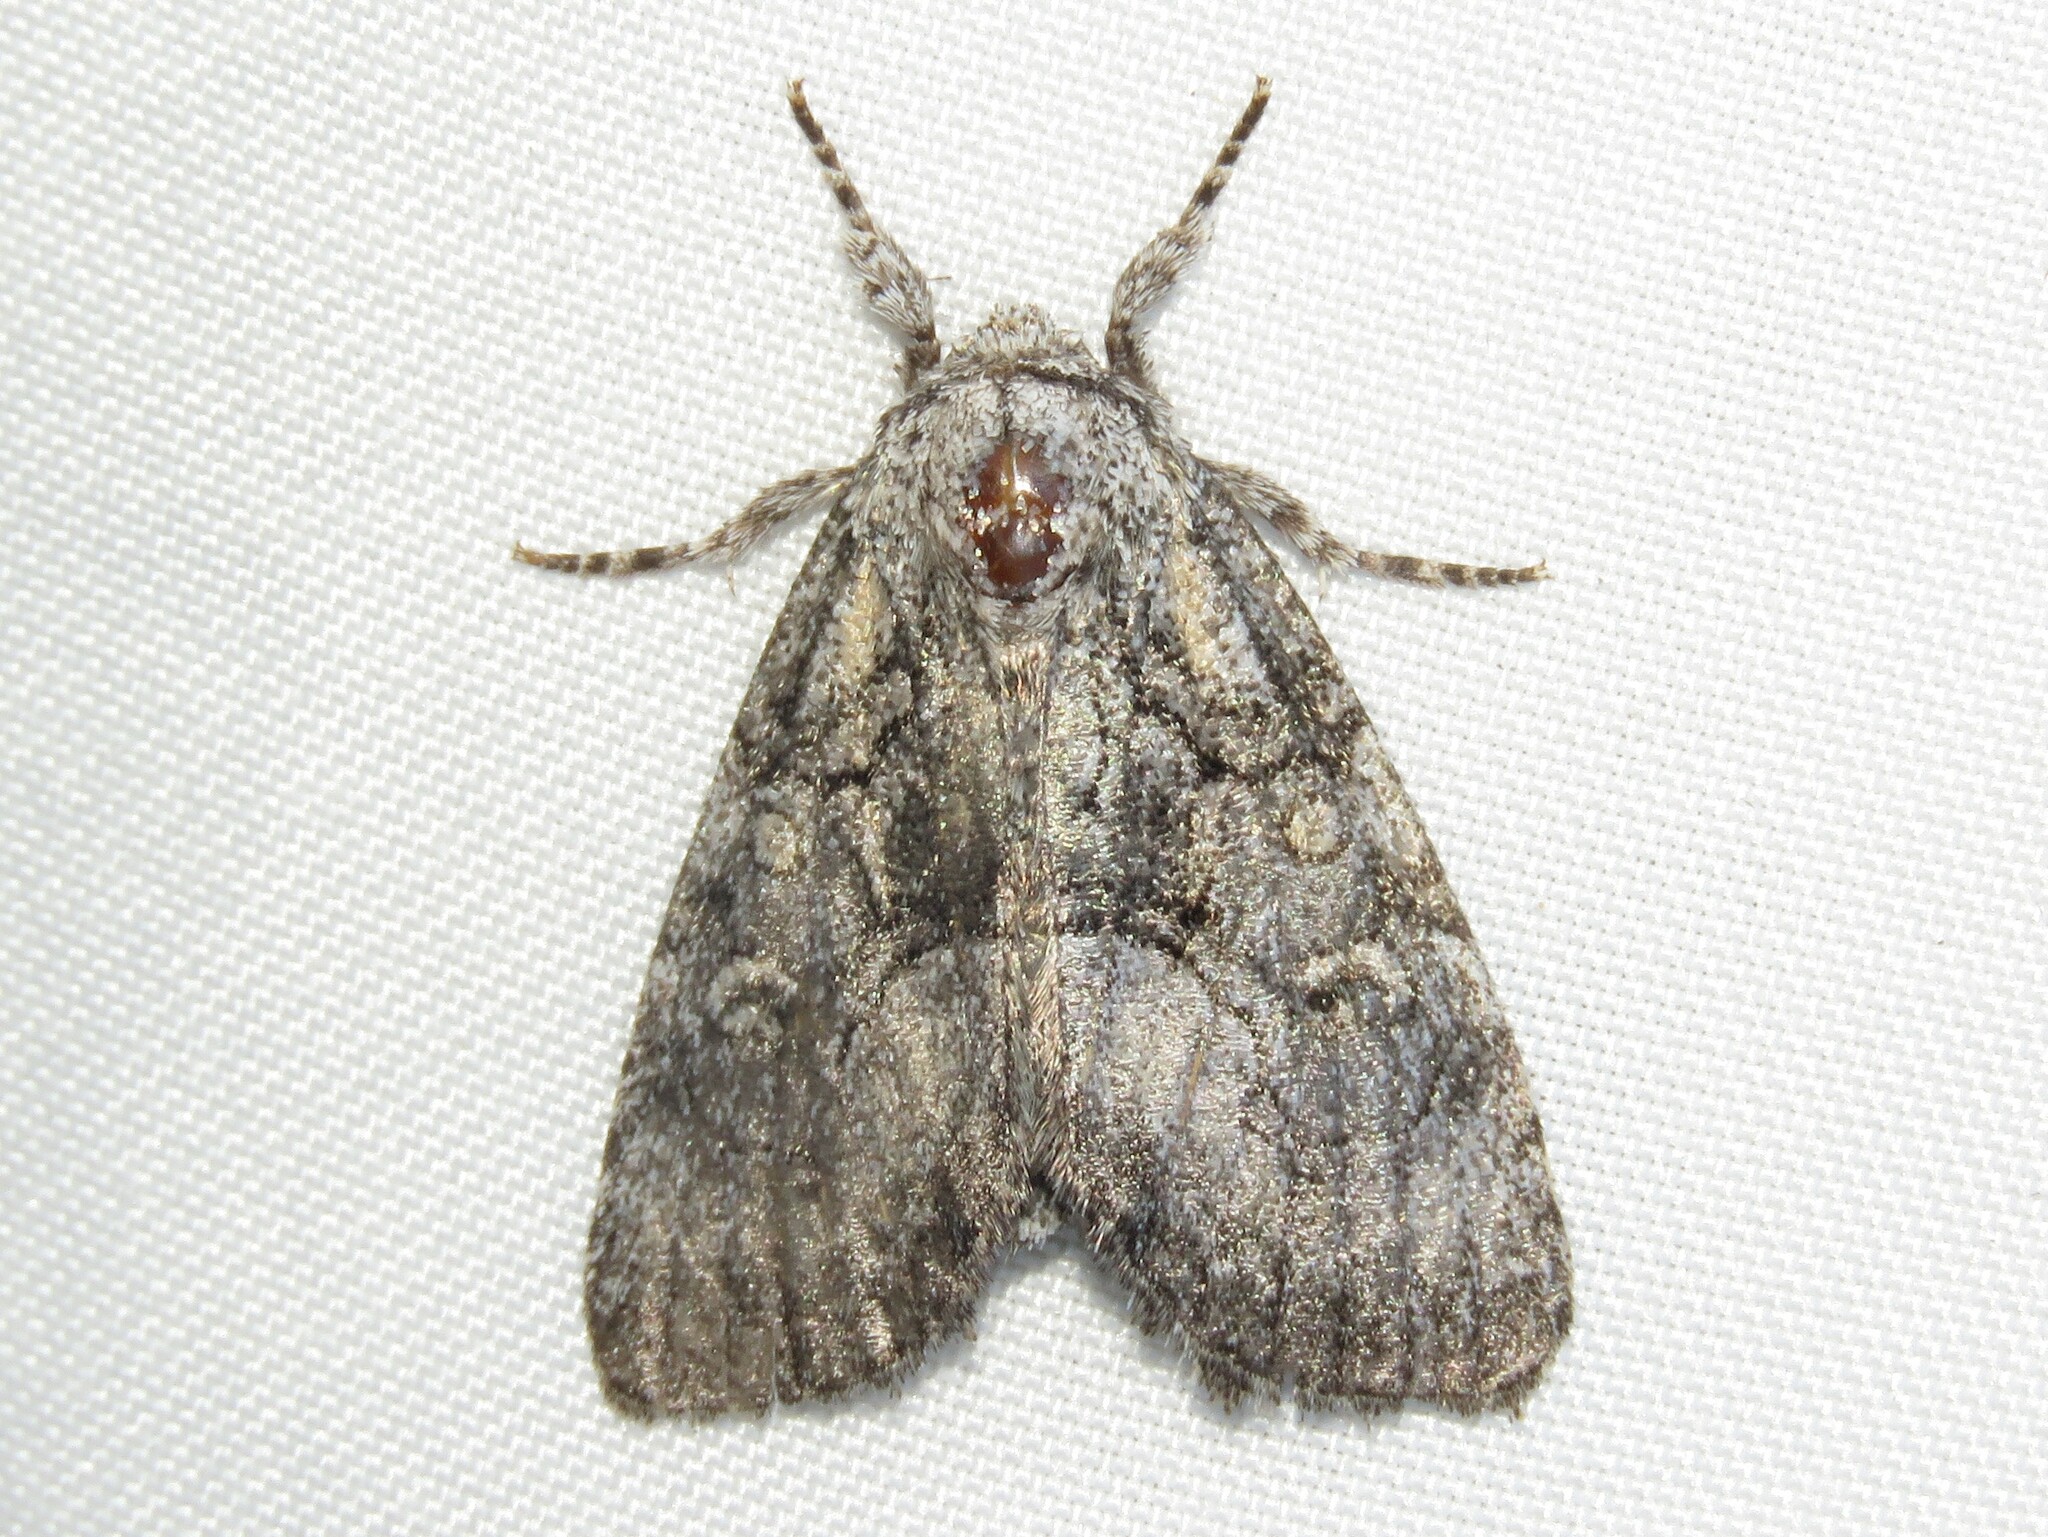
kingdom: Animalia
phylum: Arthropoda
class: Insecta
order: Lepidoptera
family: Noctuidae
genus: Raphia
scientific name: Raphia frater
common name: Brother
